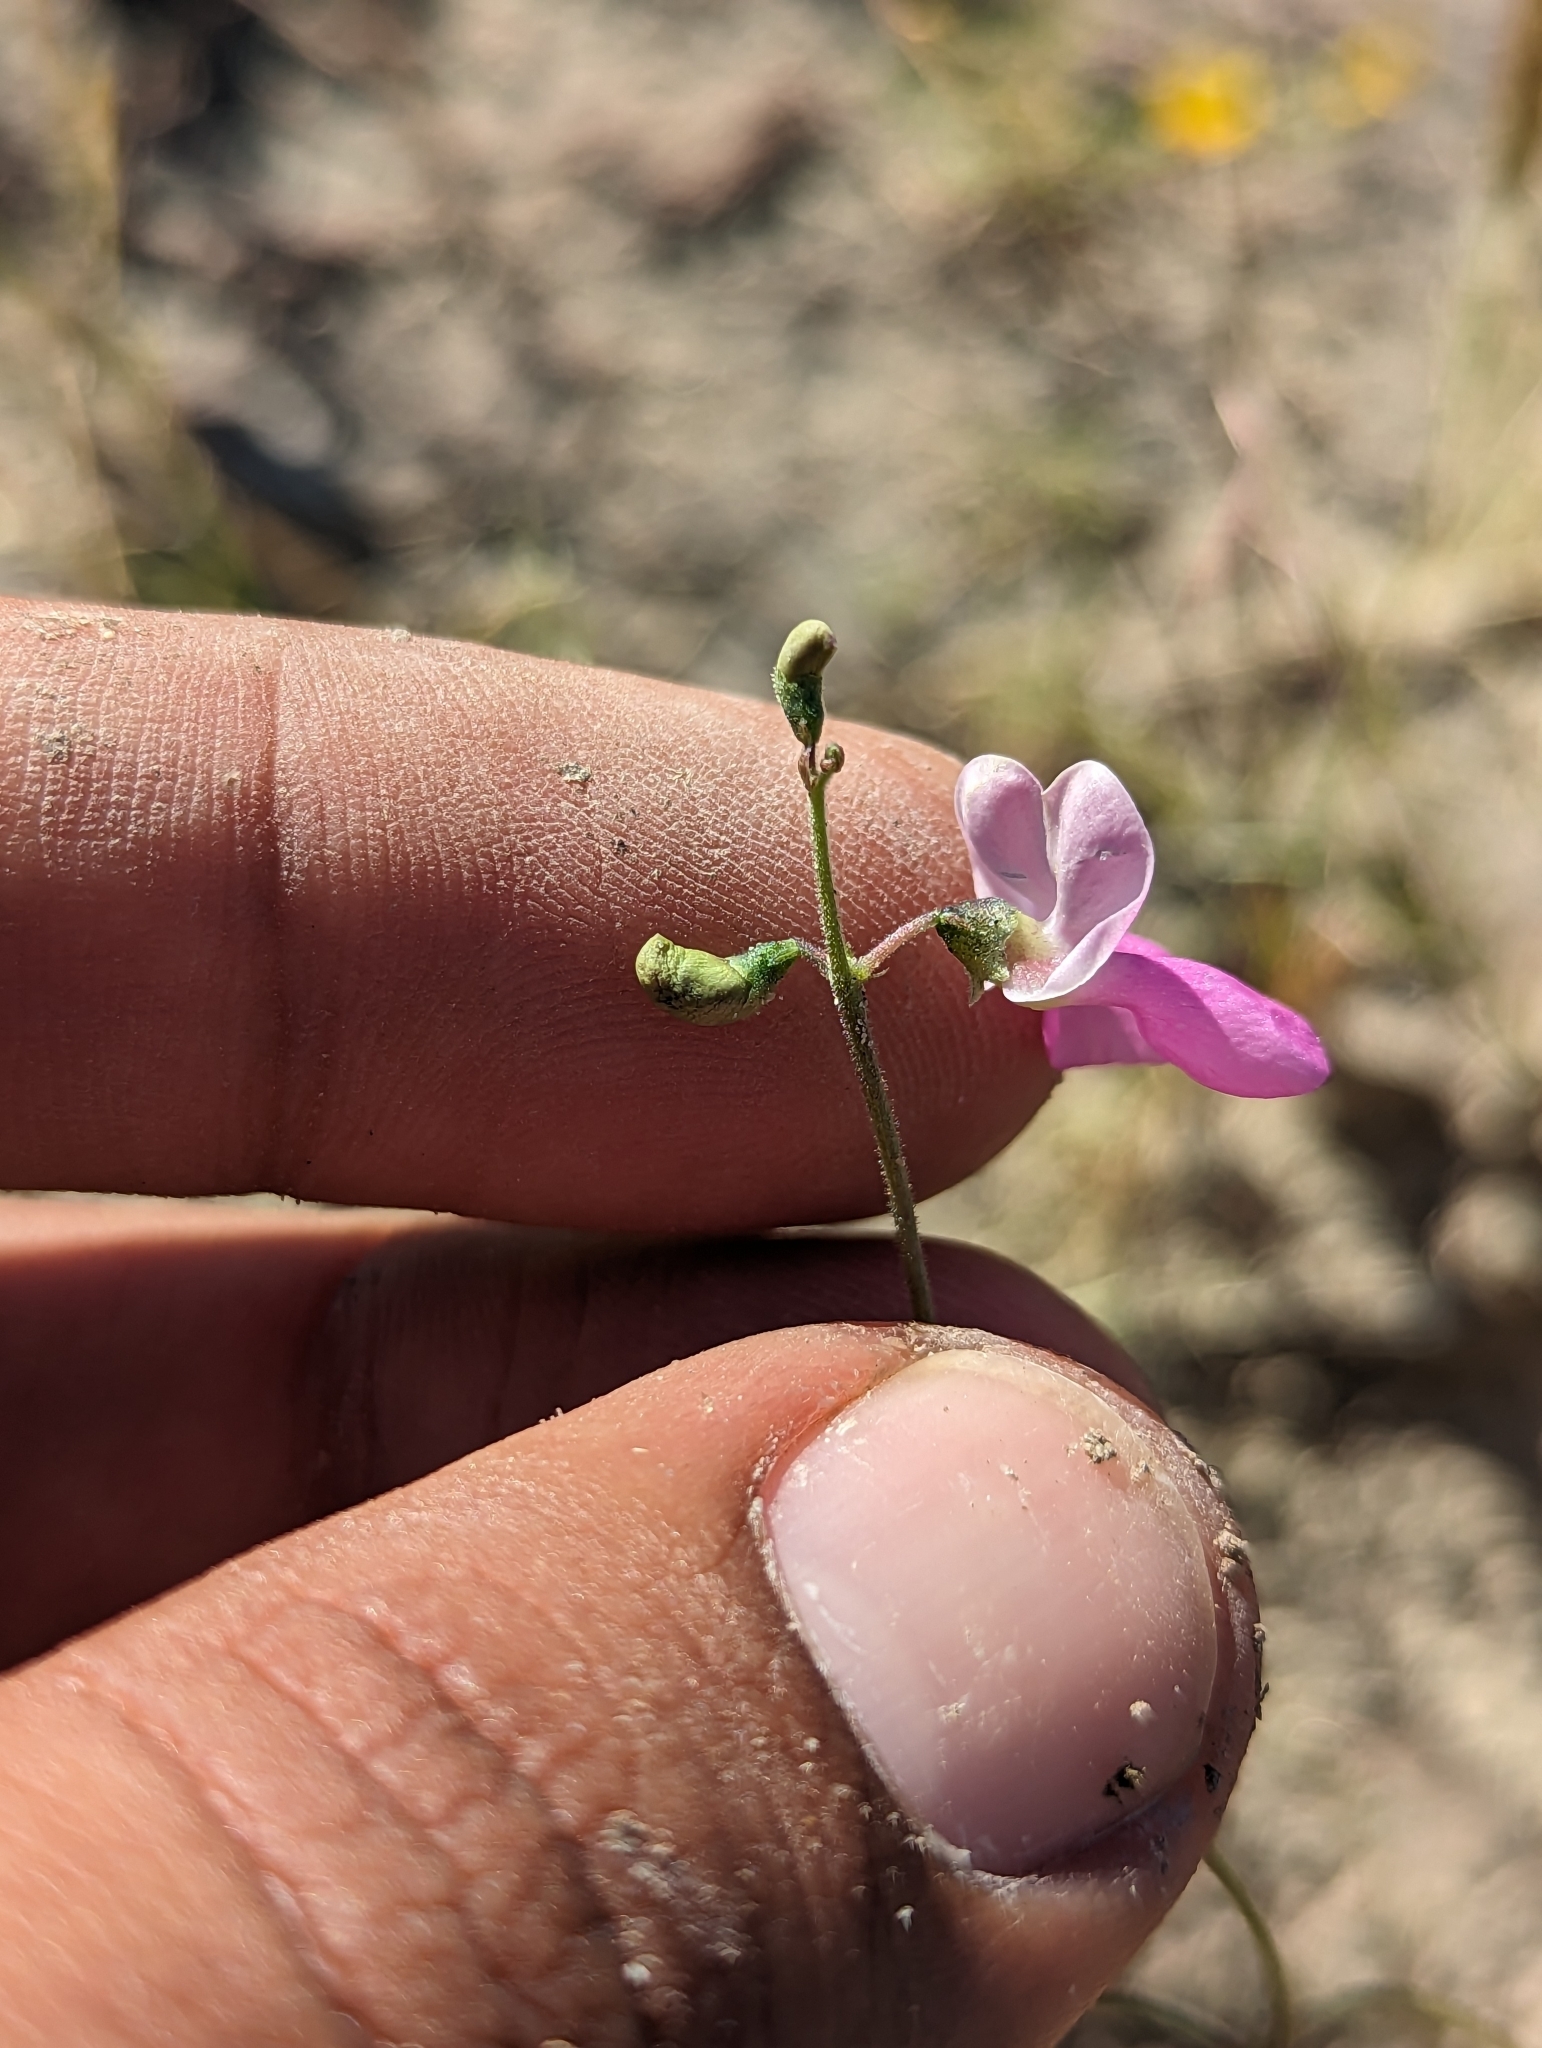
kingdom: Plantae
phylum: Tracheophyta
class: Magnoliopsida
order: Fabales
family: Fabaceae
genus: Phaseolus
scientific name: Phaseolus filiformis
